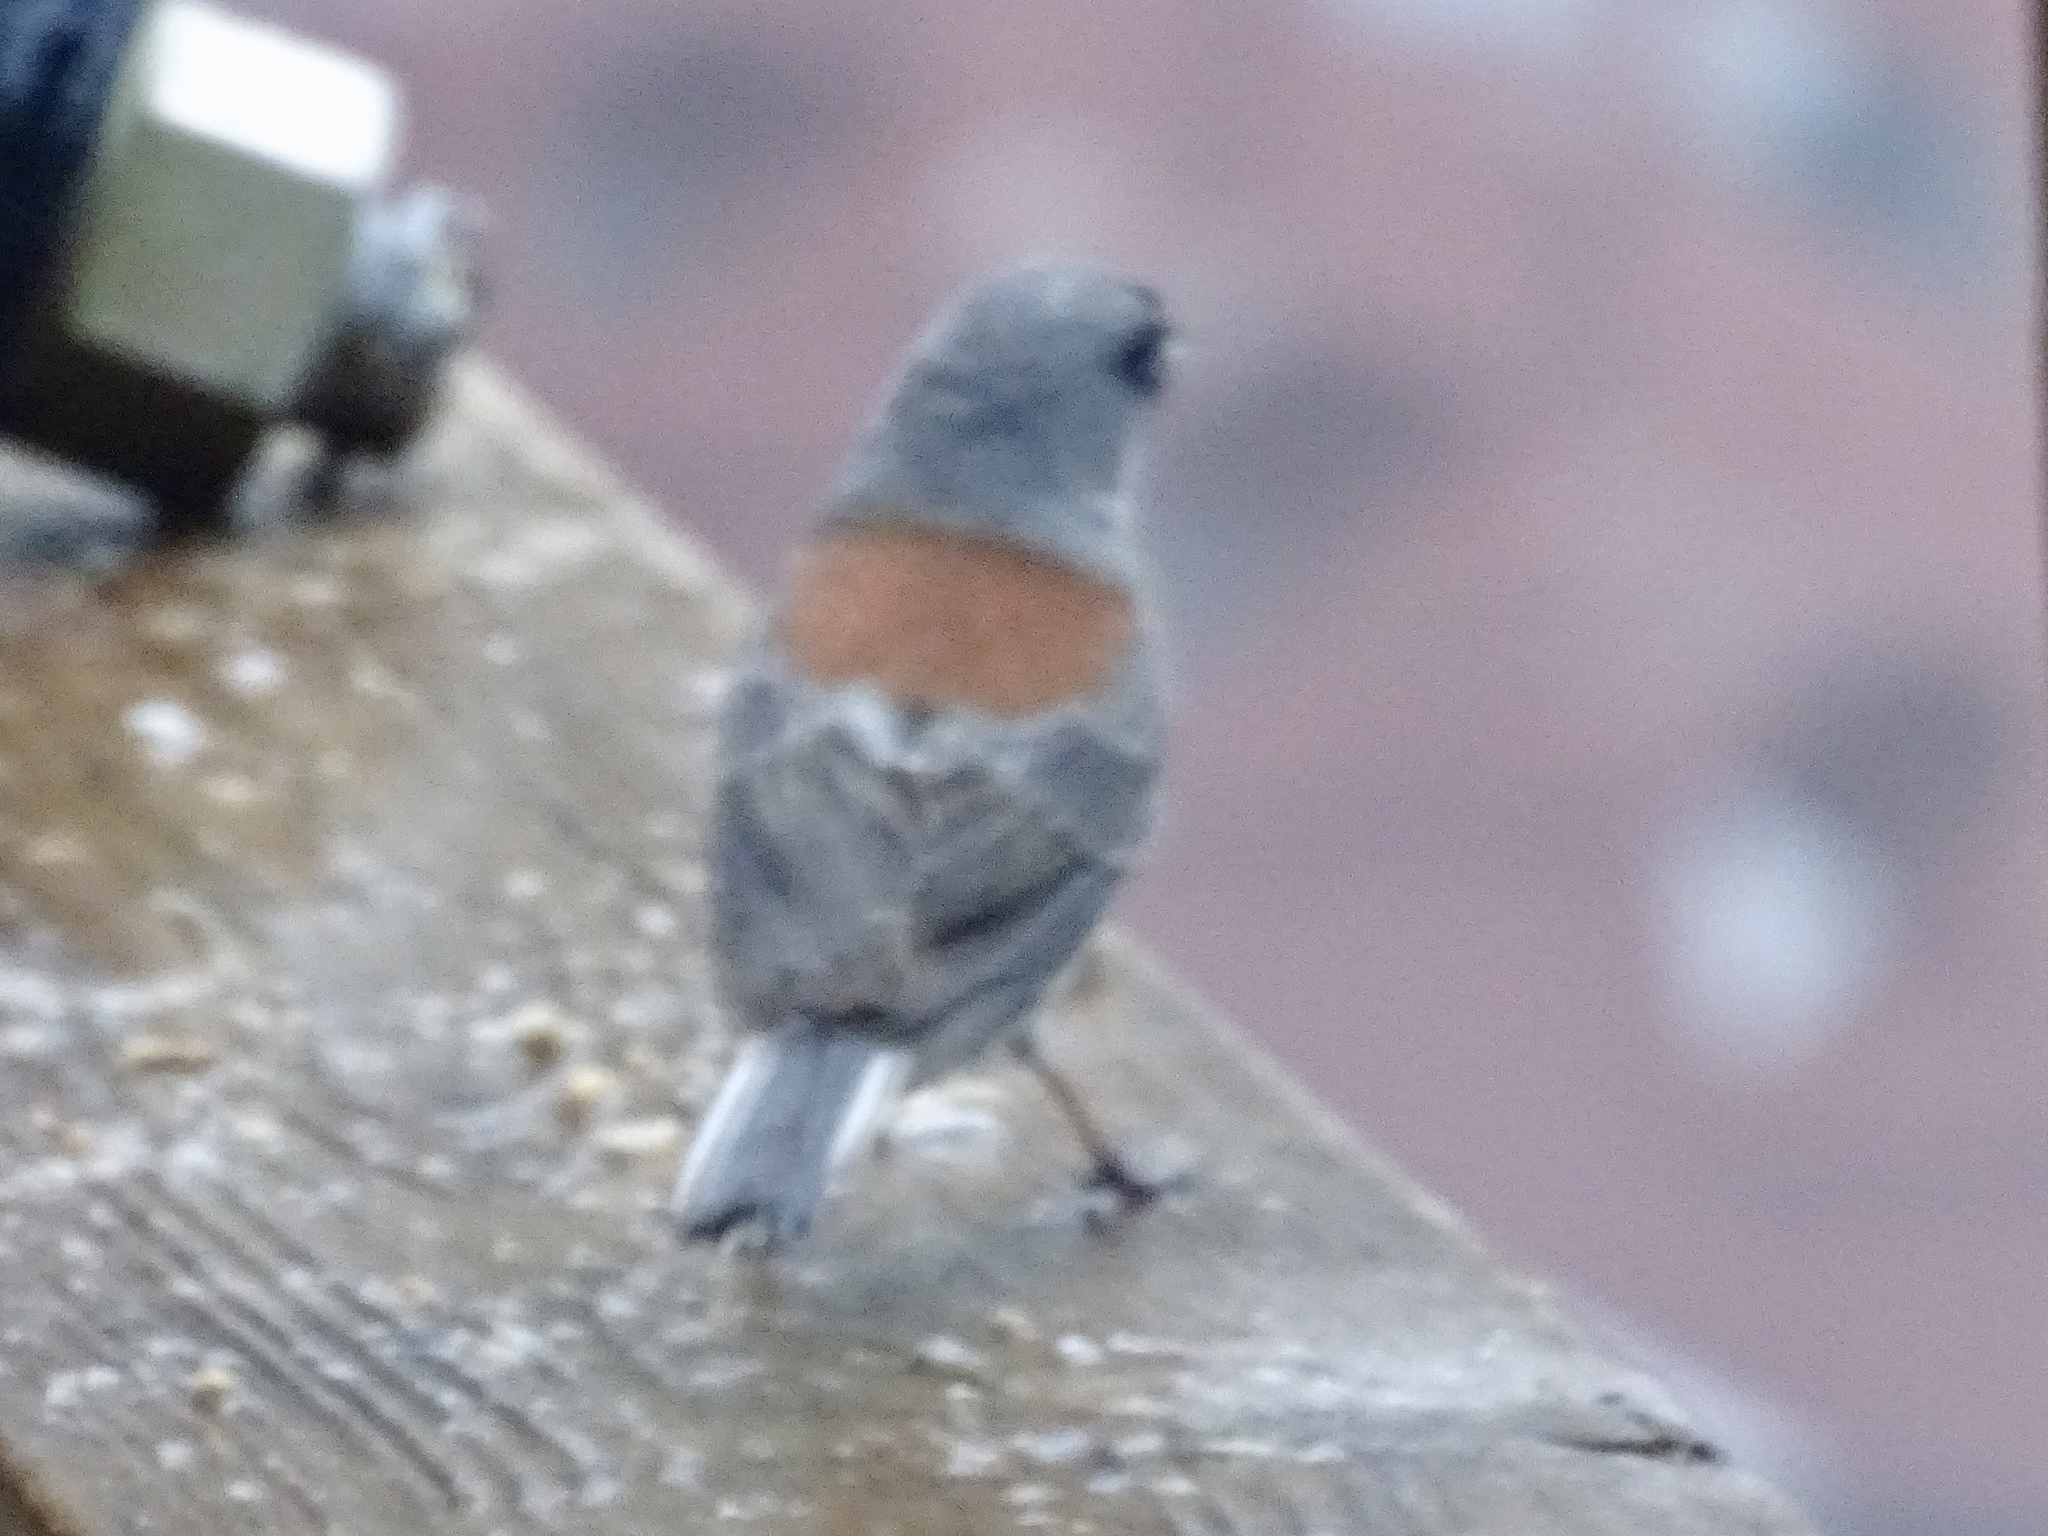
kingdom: Animalia
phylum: Chordata
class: Aves
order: Passeriformes
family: Passerellidae
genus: Junco
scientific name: Junco
